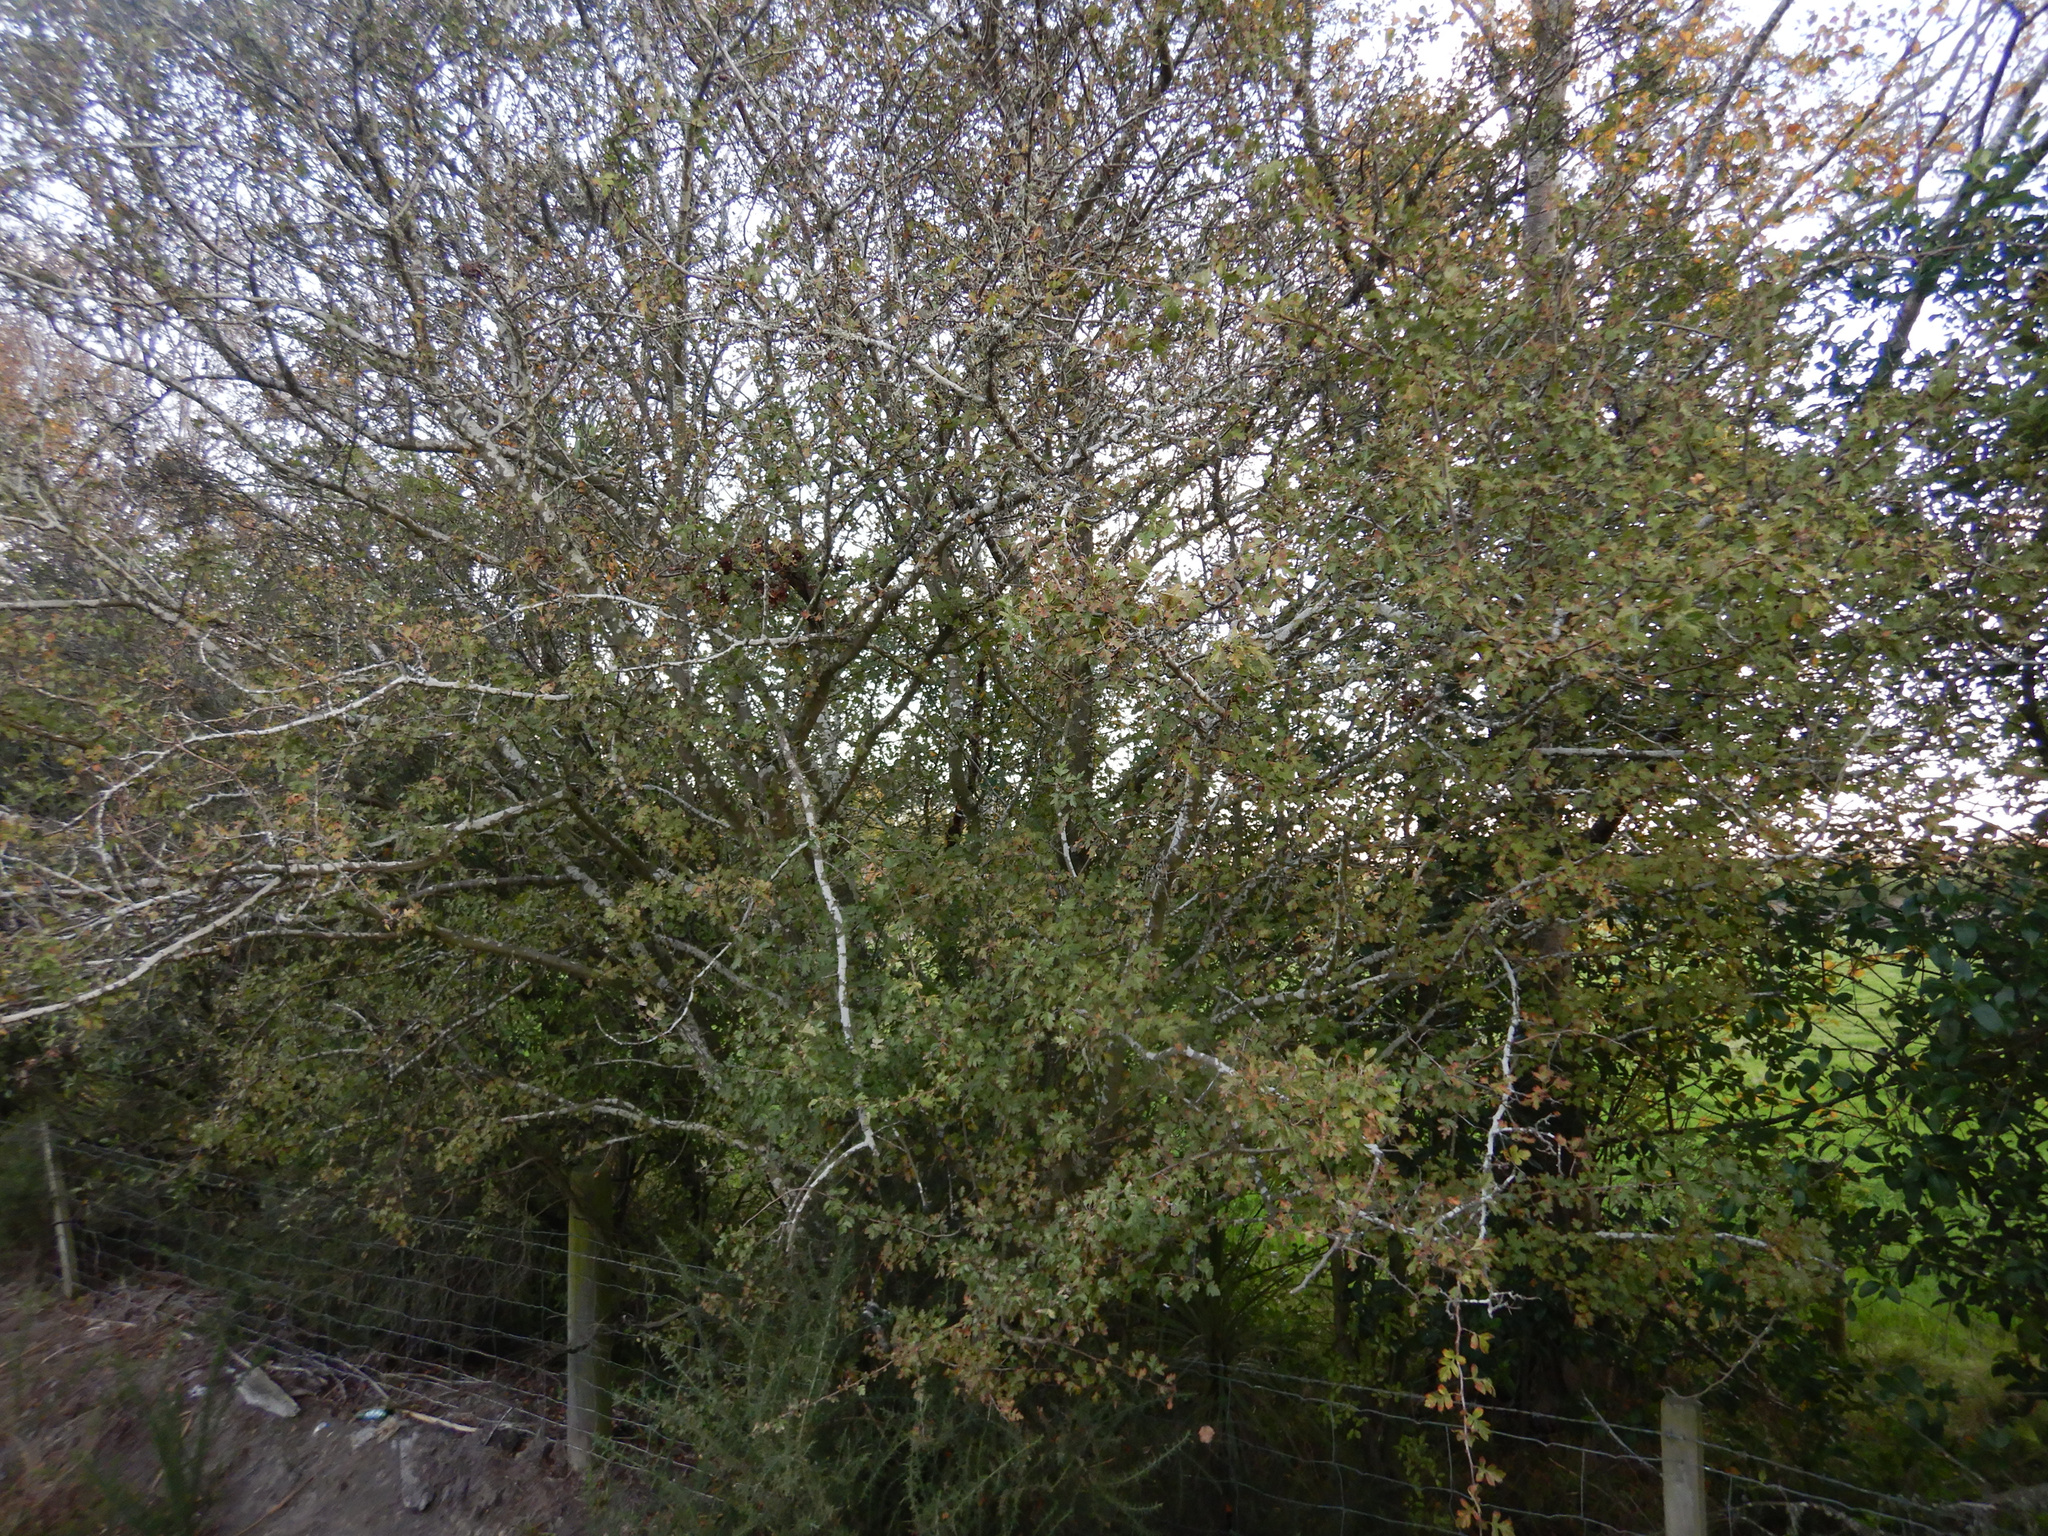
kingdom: Plantae
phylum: Tracheophyta
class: Magnoliopsida
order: Rosales
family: Rosaceae
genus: Crataegus
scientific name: Crataegus monogyna
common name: Hawthorn
